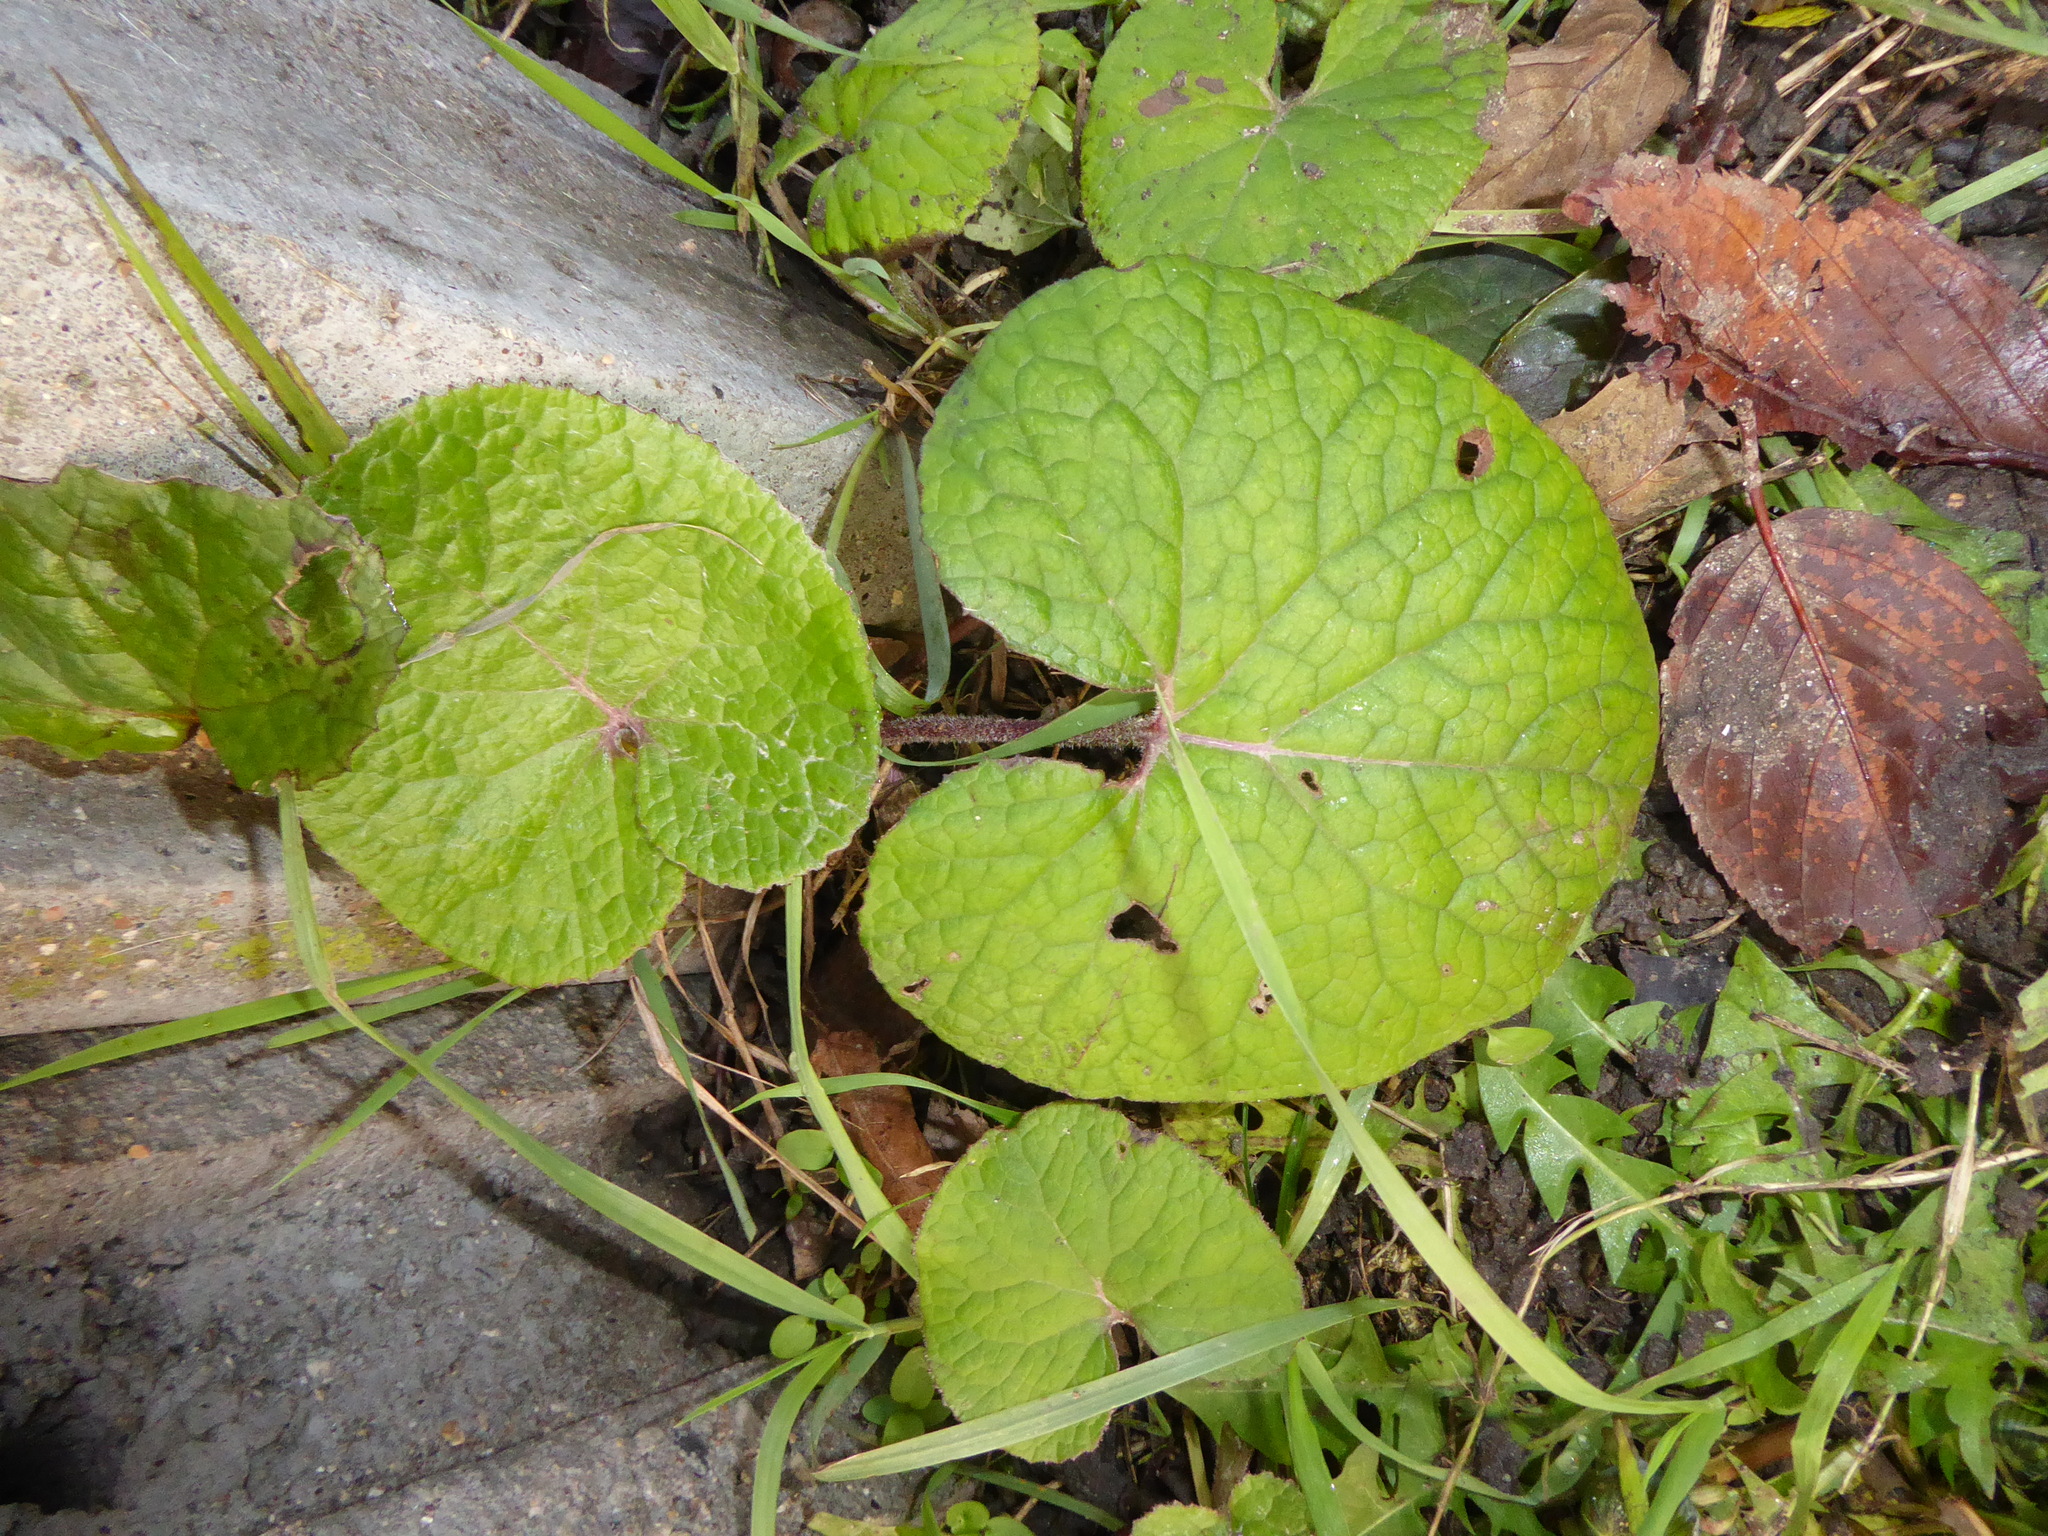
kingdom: Plantae
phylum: Tracheophyta
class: Magnoliopsida
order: Asterales
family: Asteraceae
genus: Petasites
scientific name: Petasites pyrenaicus
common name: Winter heliotrope
